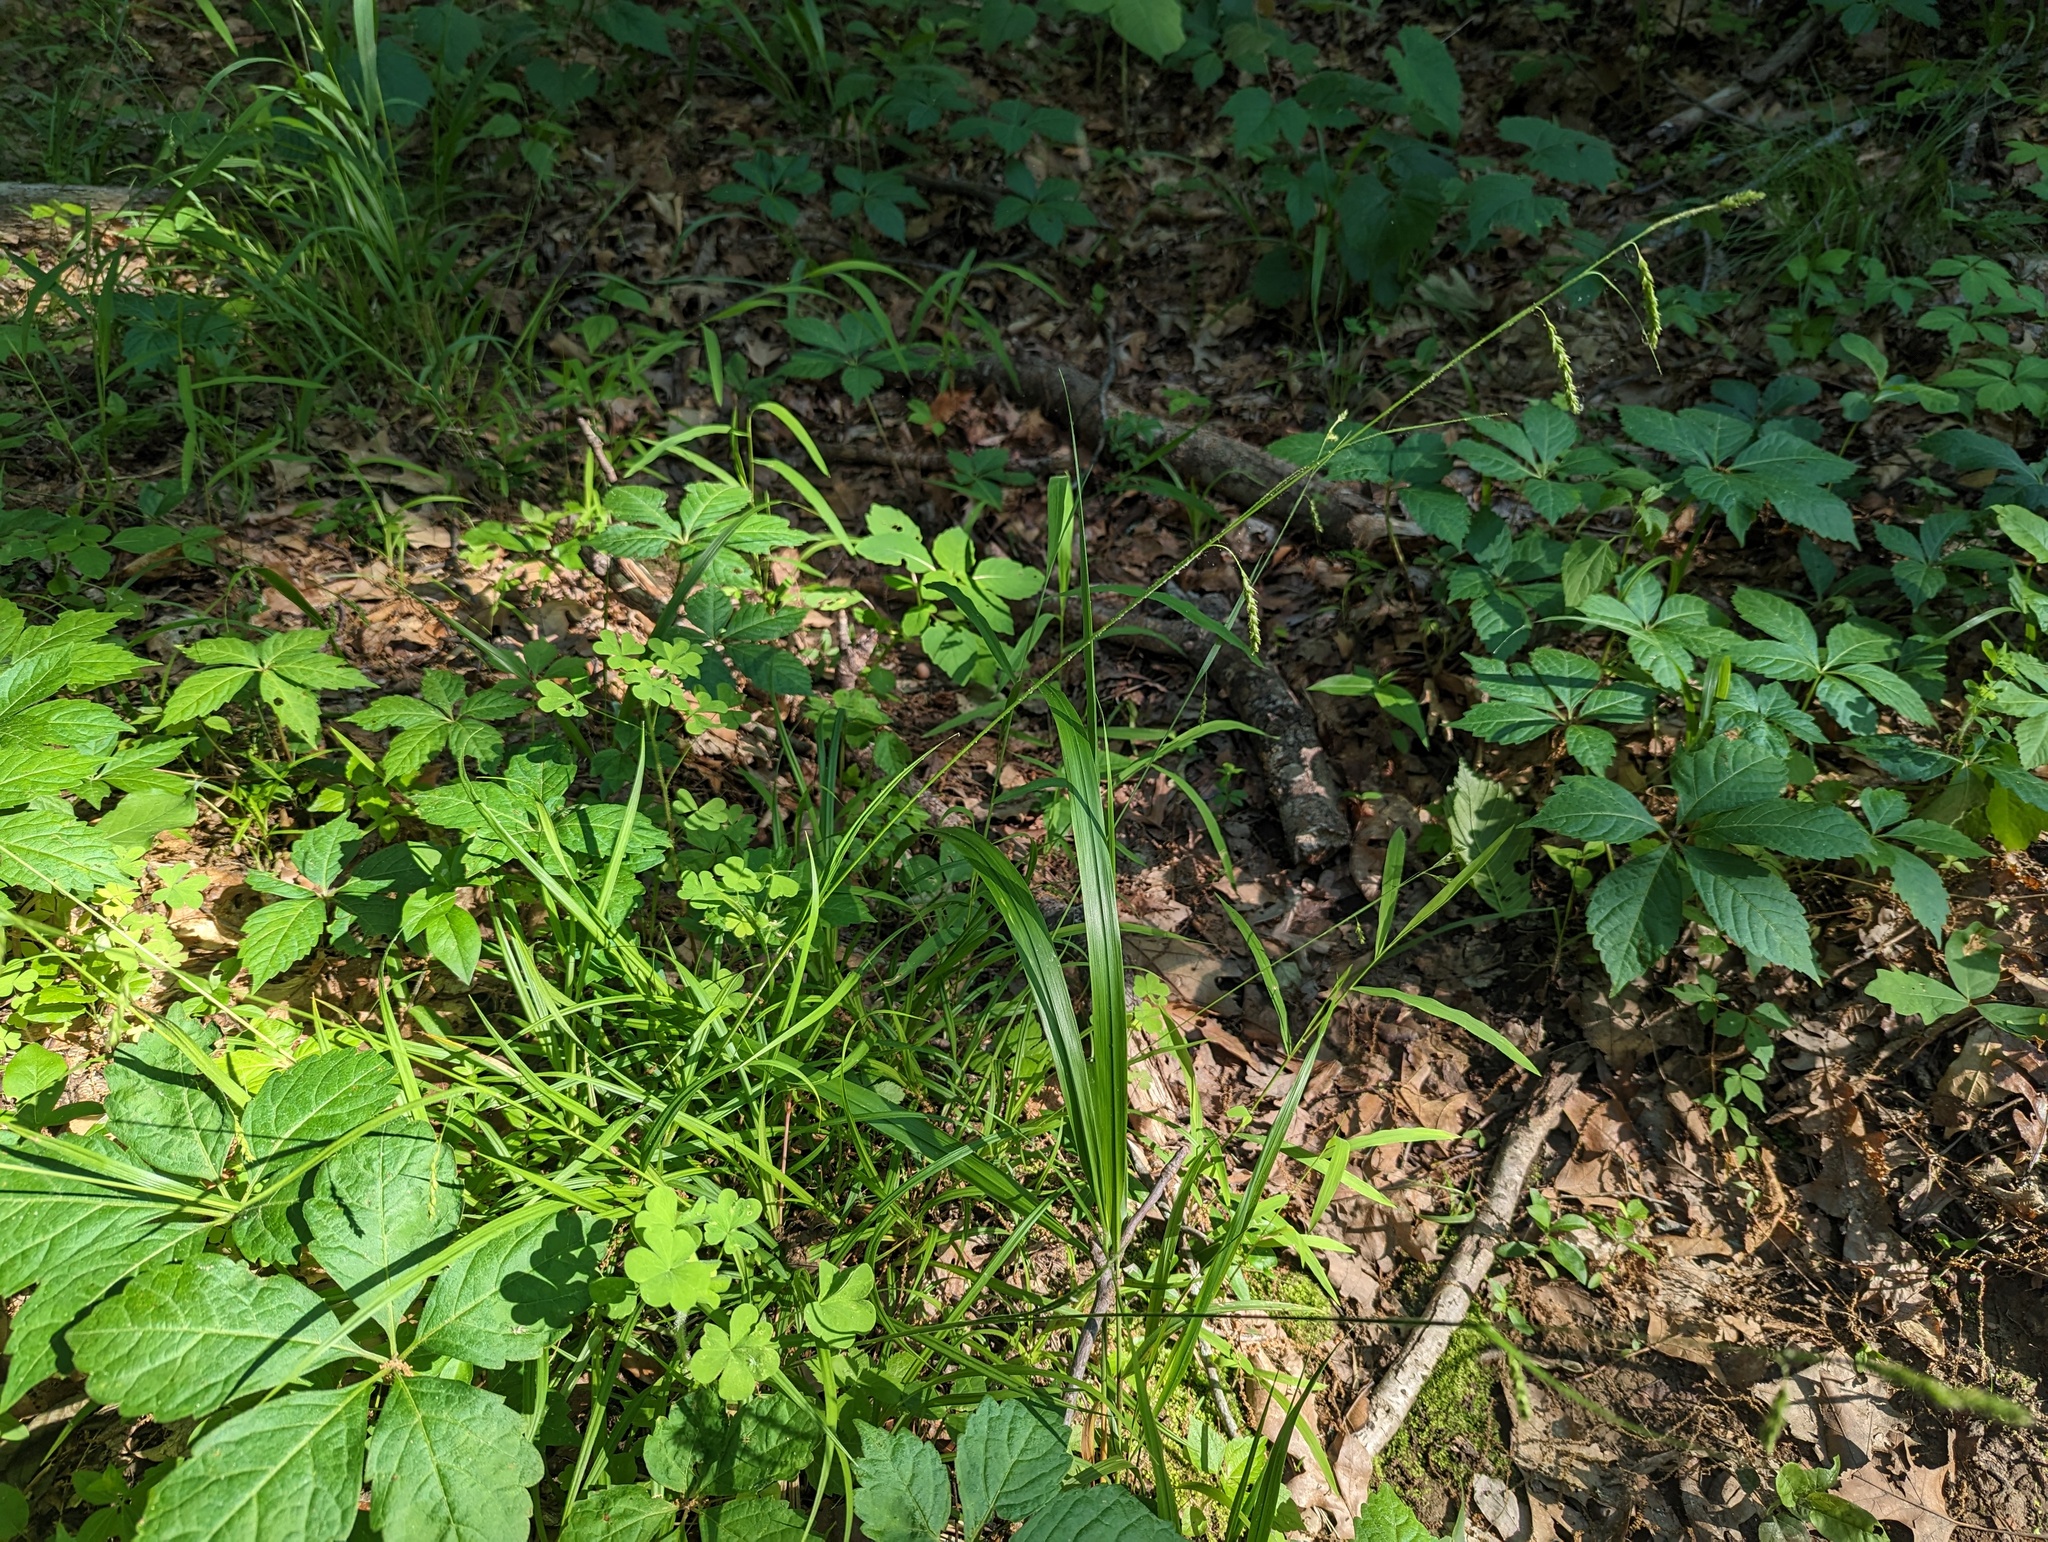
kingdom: Plantae
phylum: Tracheophyta
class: Liliopsida
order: Poales
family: Cyperaceae
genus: Carex
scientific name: Carex oxylepis
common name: Sharpscale sedge
